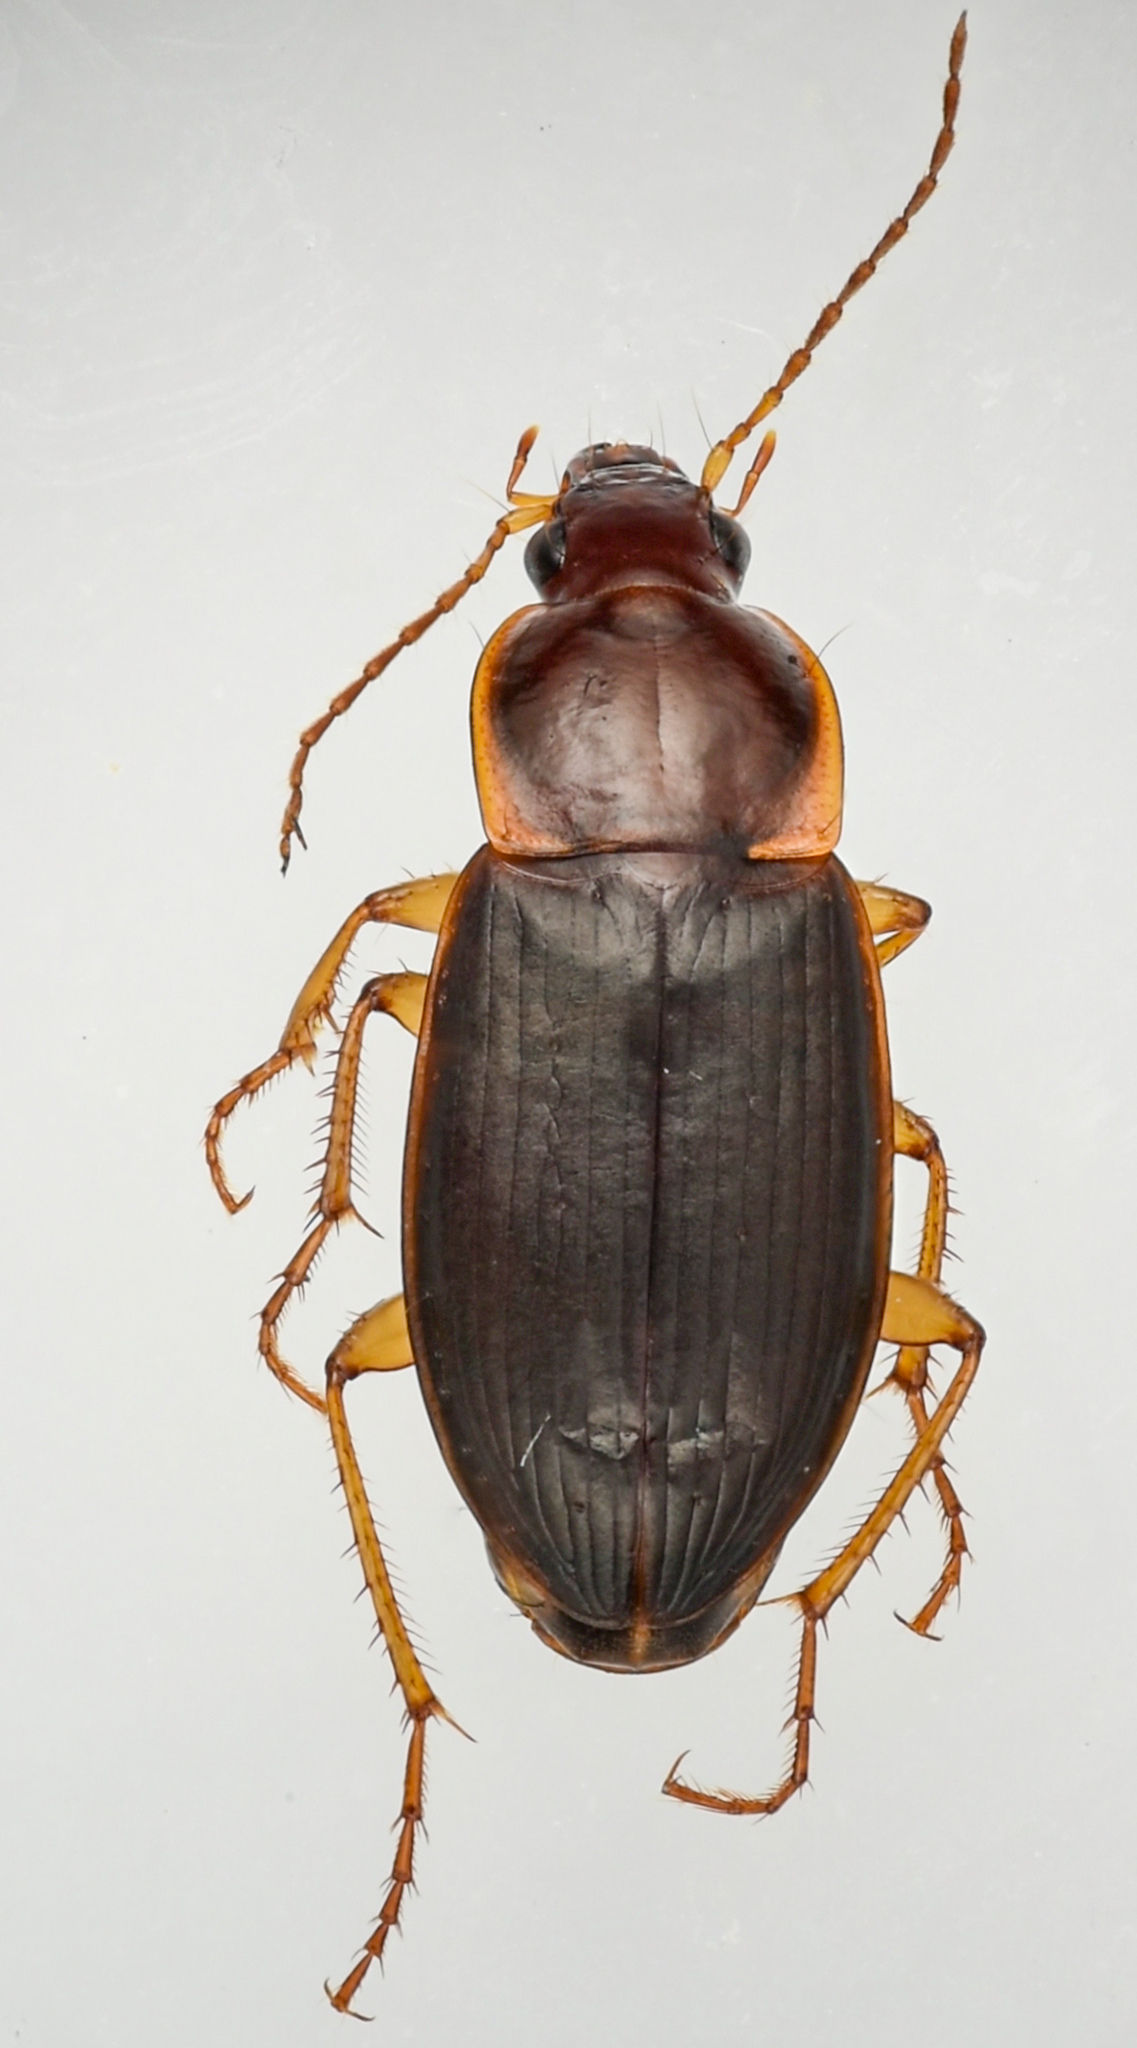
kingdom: Animalia
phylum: Arthropoda
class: Insecta
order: Coleoptera
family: Carabidae
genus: Calathus
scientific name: Calathus ruficollis
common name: Red-collared harp ground beetle
